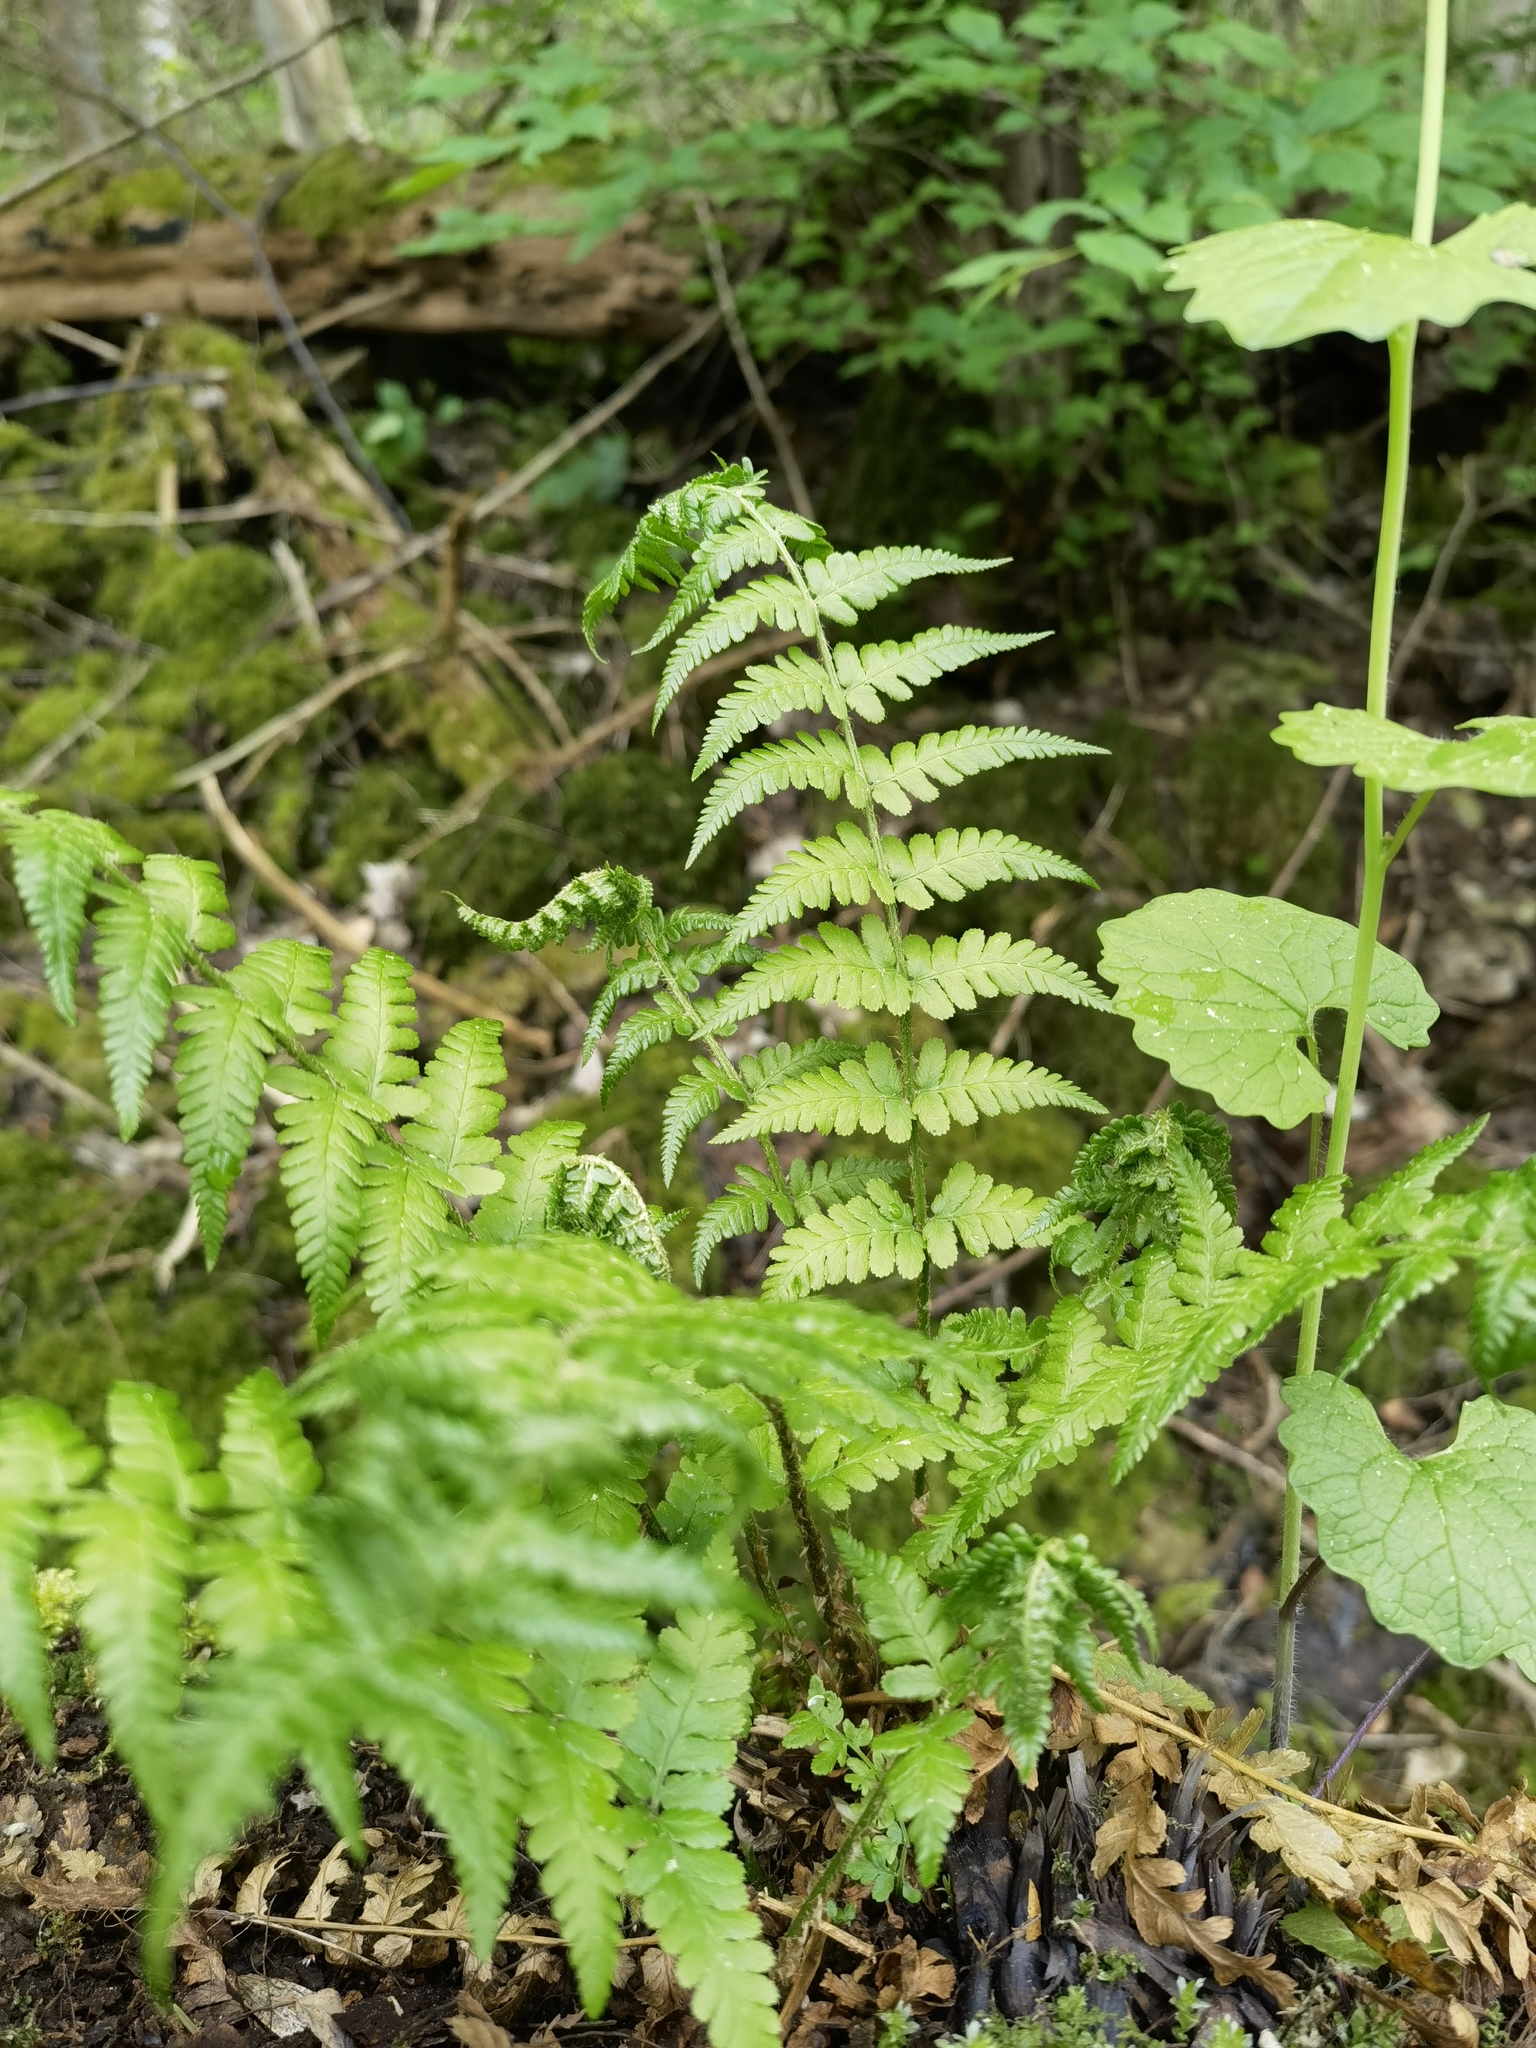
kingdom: Plantae
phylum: Tracheophyta
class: Polypodiopsida
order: Polypodiales
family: Dryopteridaceae
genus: Dryopteris
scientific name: Dryopteris filix-mas
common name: Male fern
